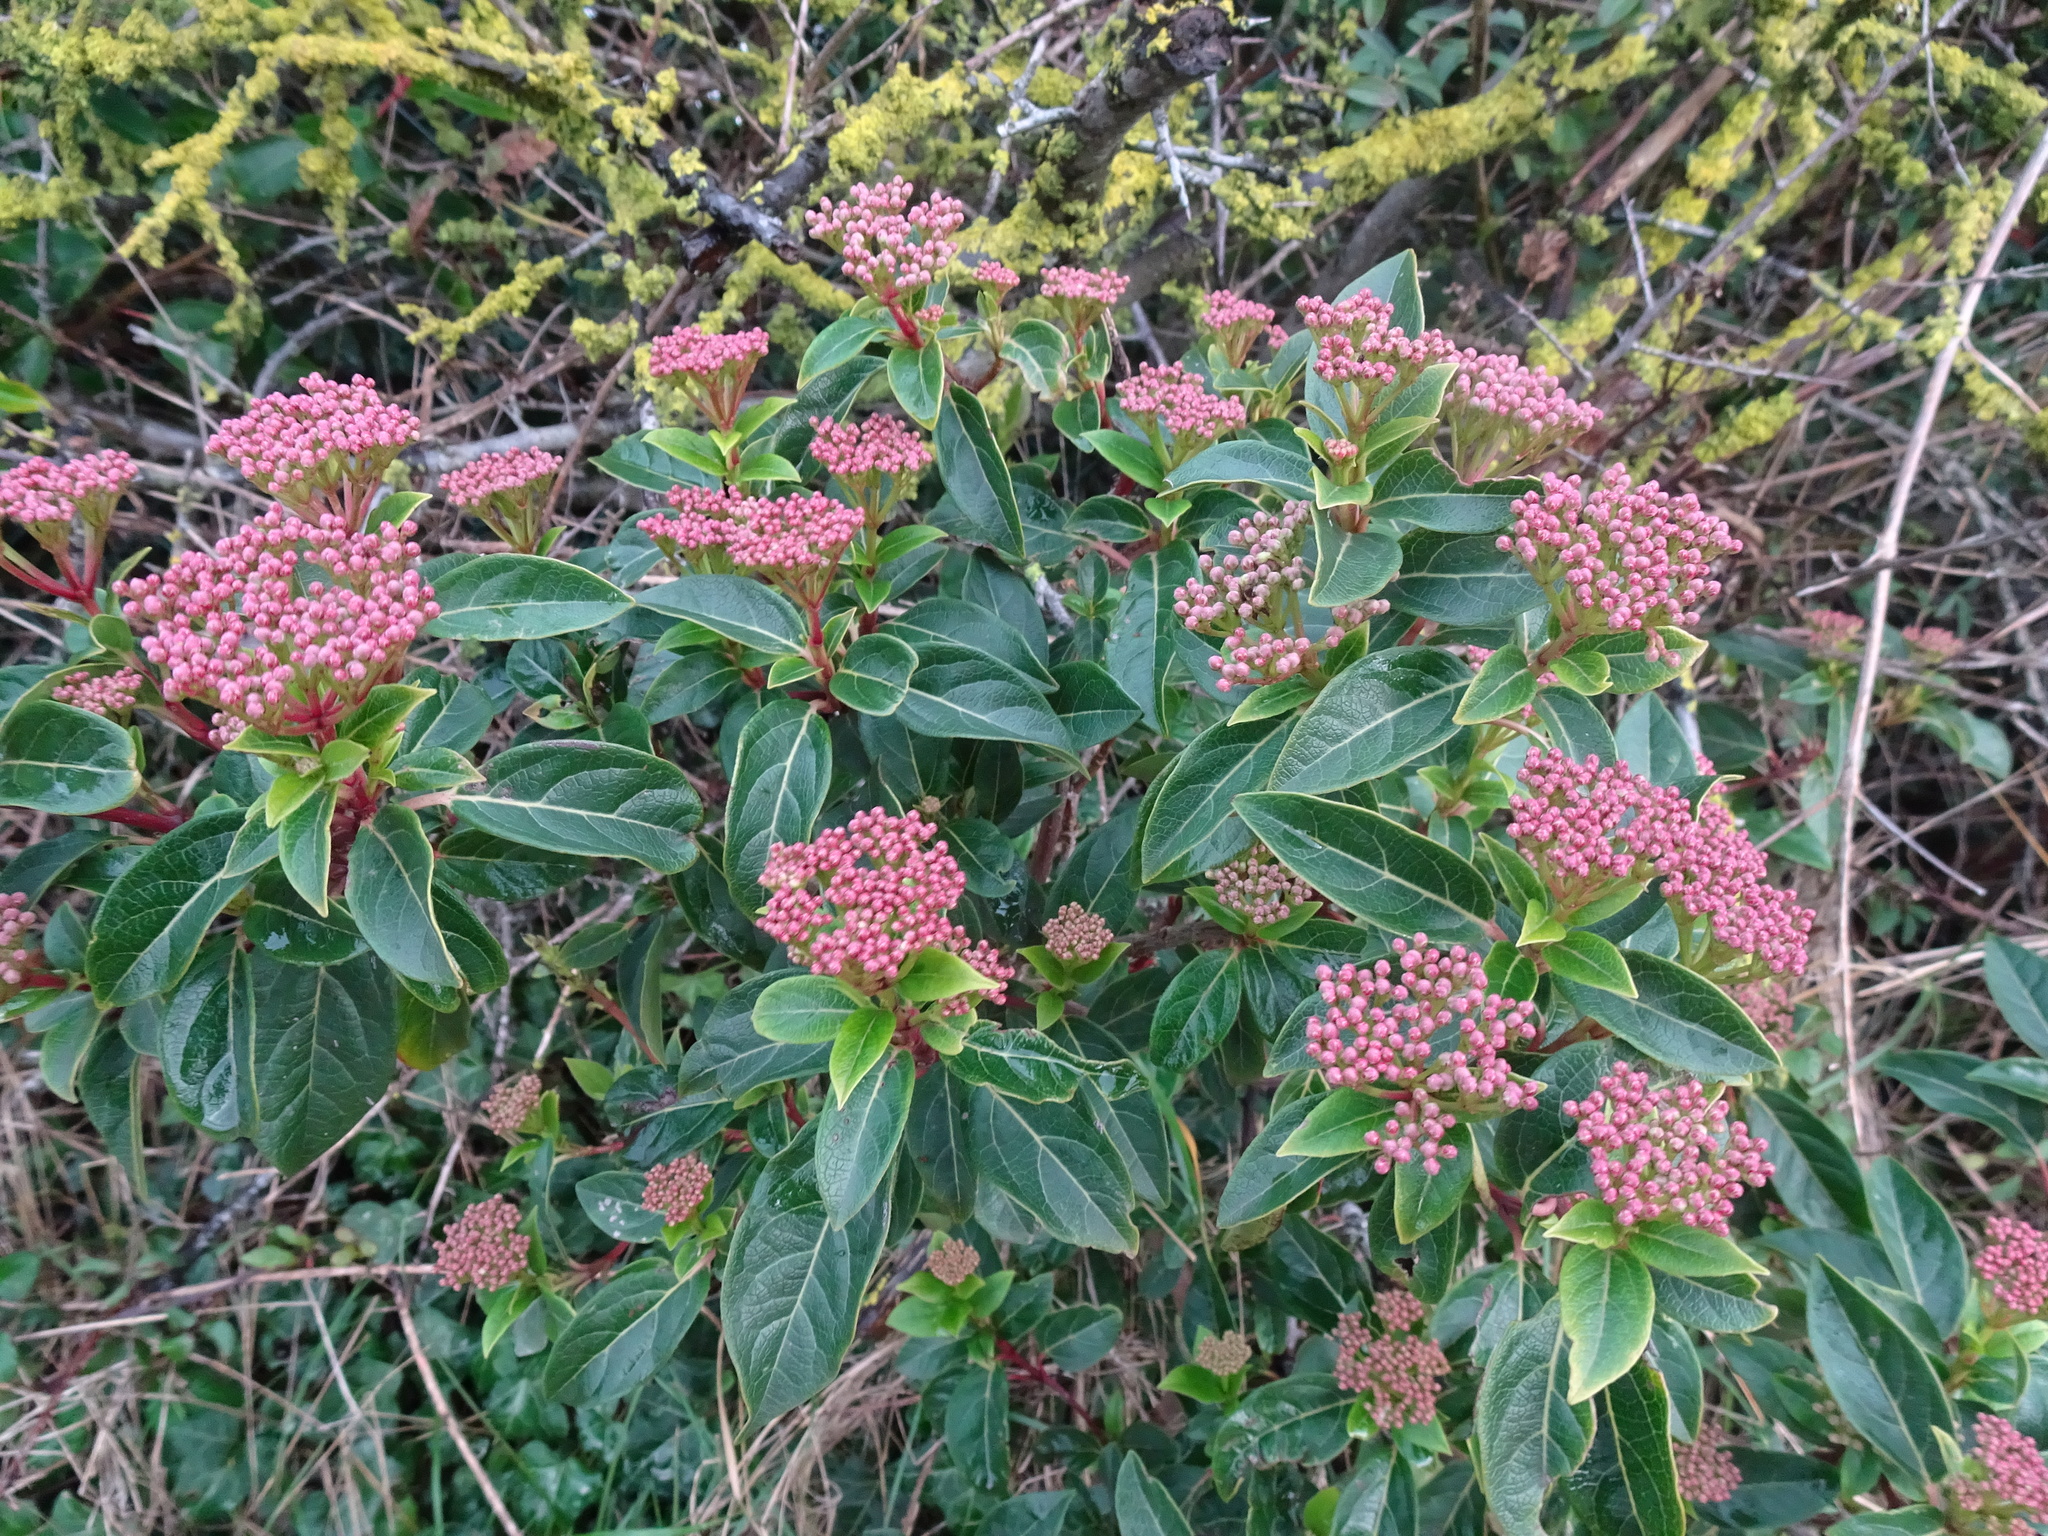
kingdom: Plantae
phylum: Tracheophyta
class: Magnoliopsida
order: Dipsacales
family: Viburnaceae
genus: Viburnum
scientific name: Viburnum tinus
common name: Laurustinus
